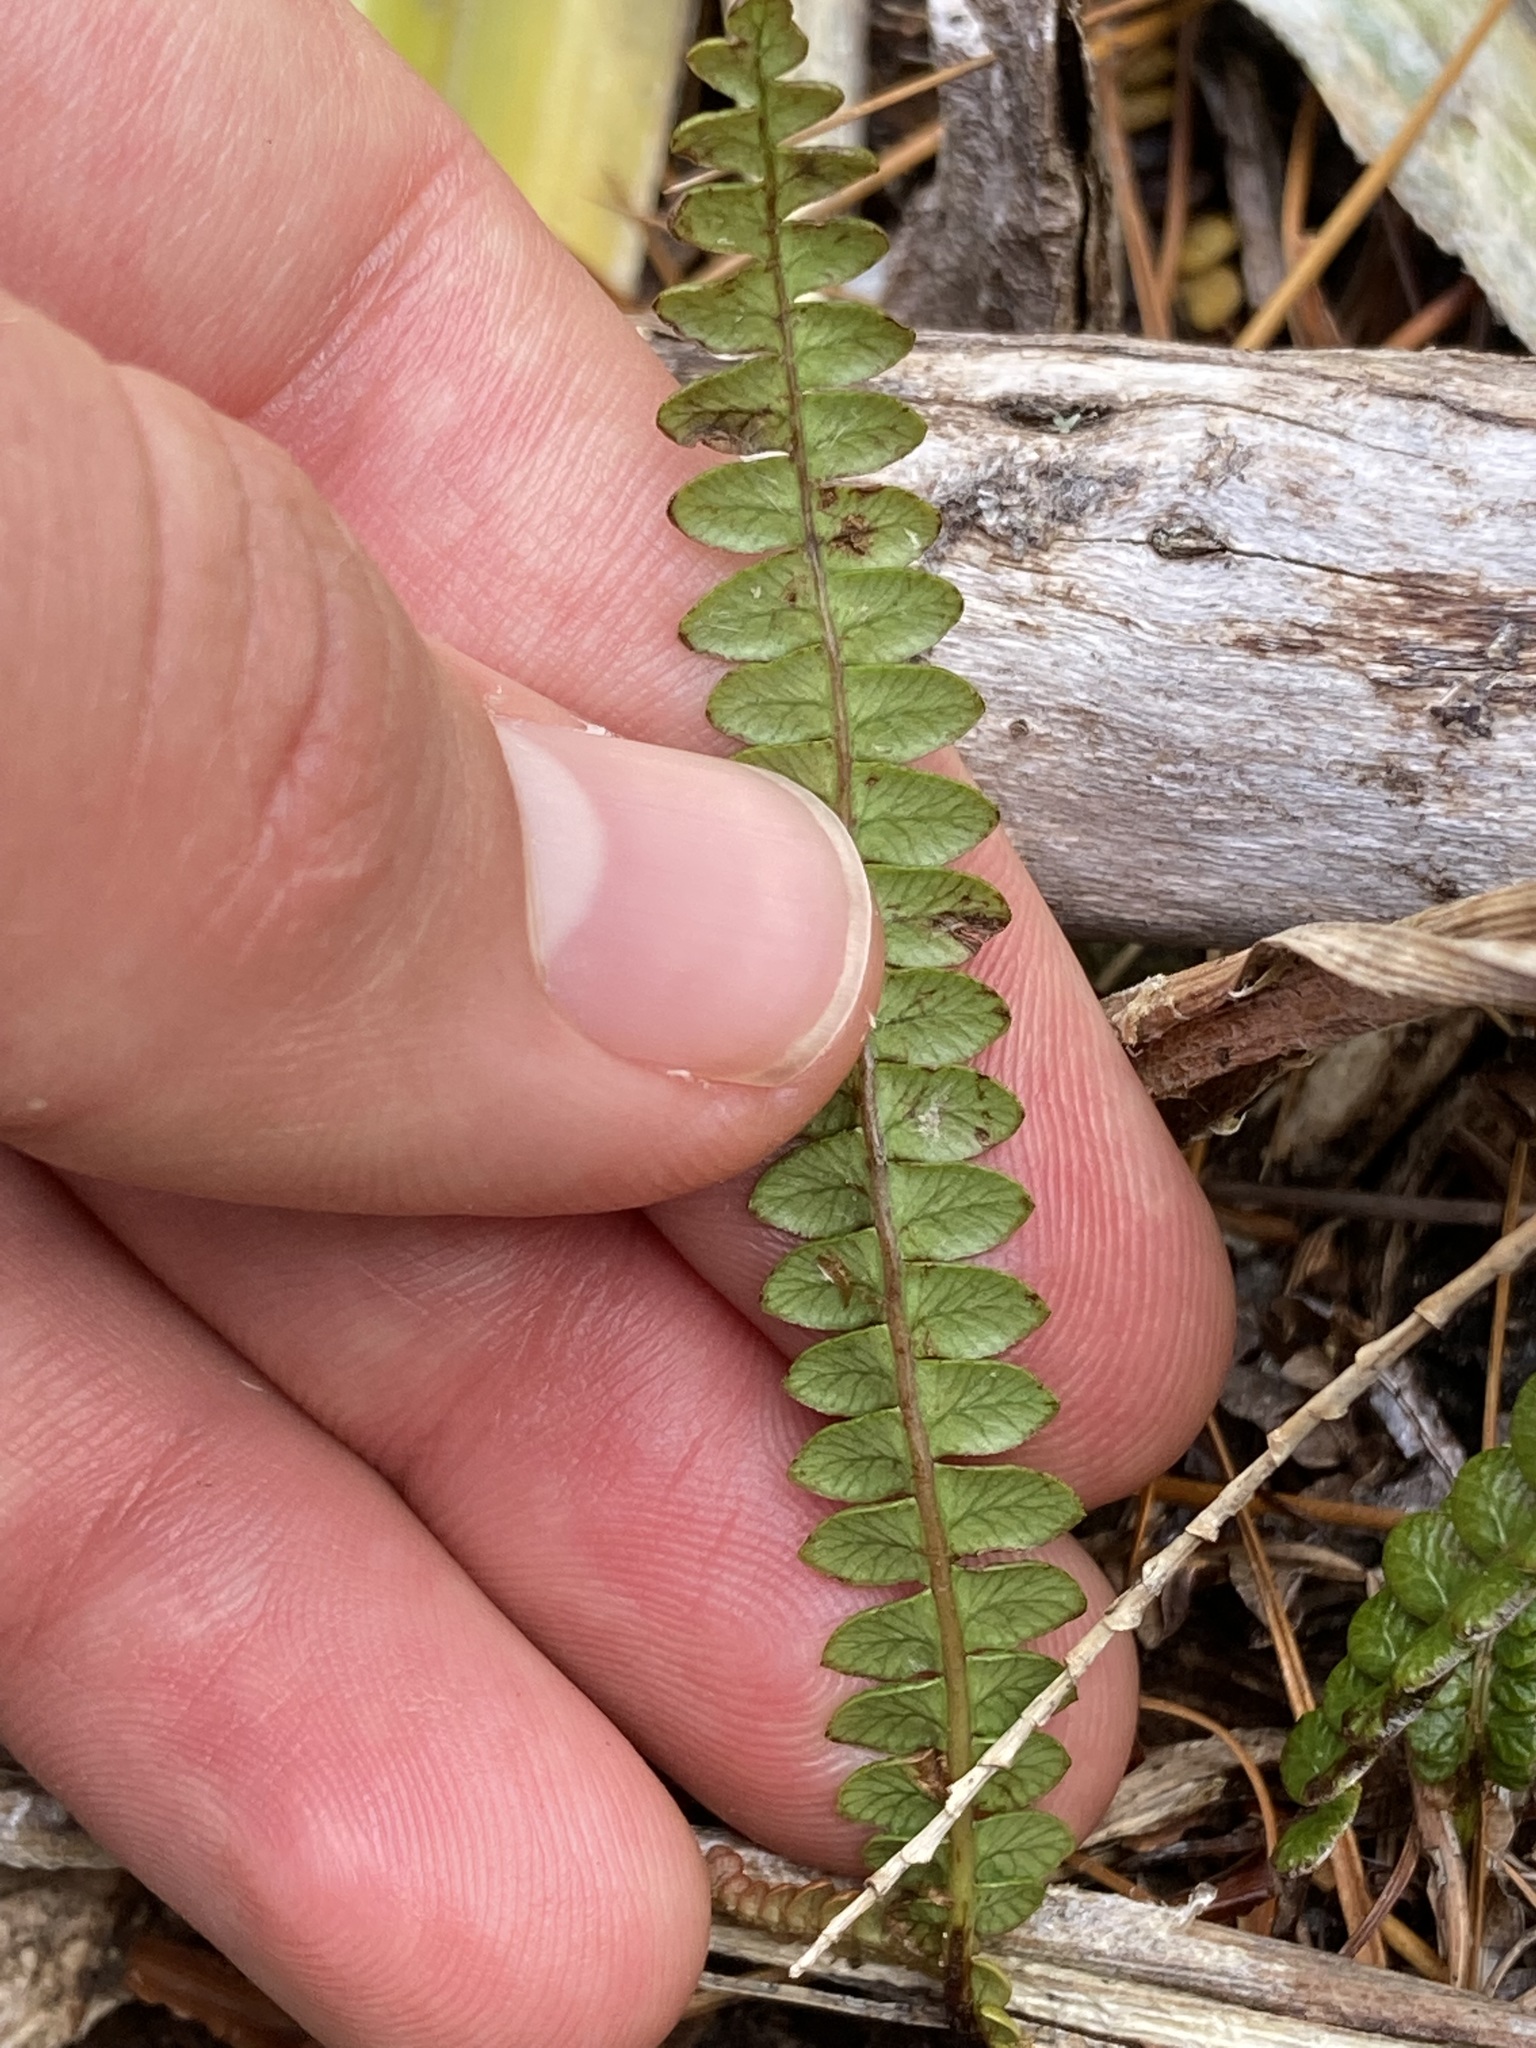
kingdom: Plantae
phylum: Tracheophyta
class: Polypodiopsida
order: Polypodiales
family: Blechnaceae
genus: Austroblechnum
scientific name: Austroblechnum penna-marina
